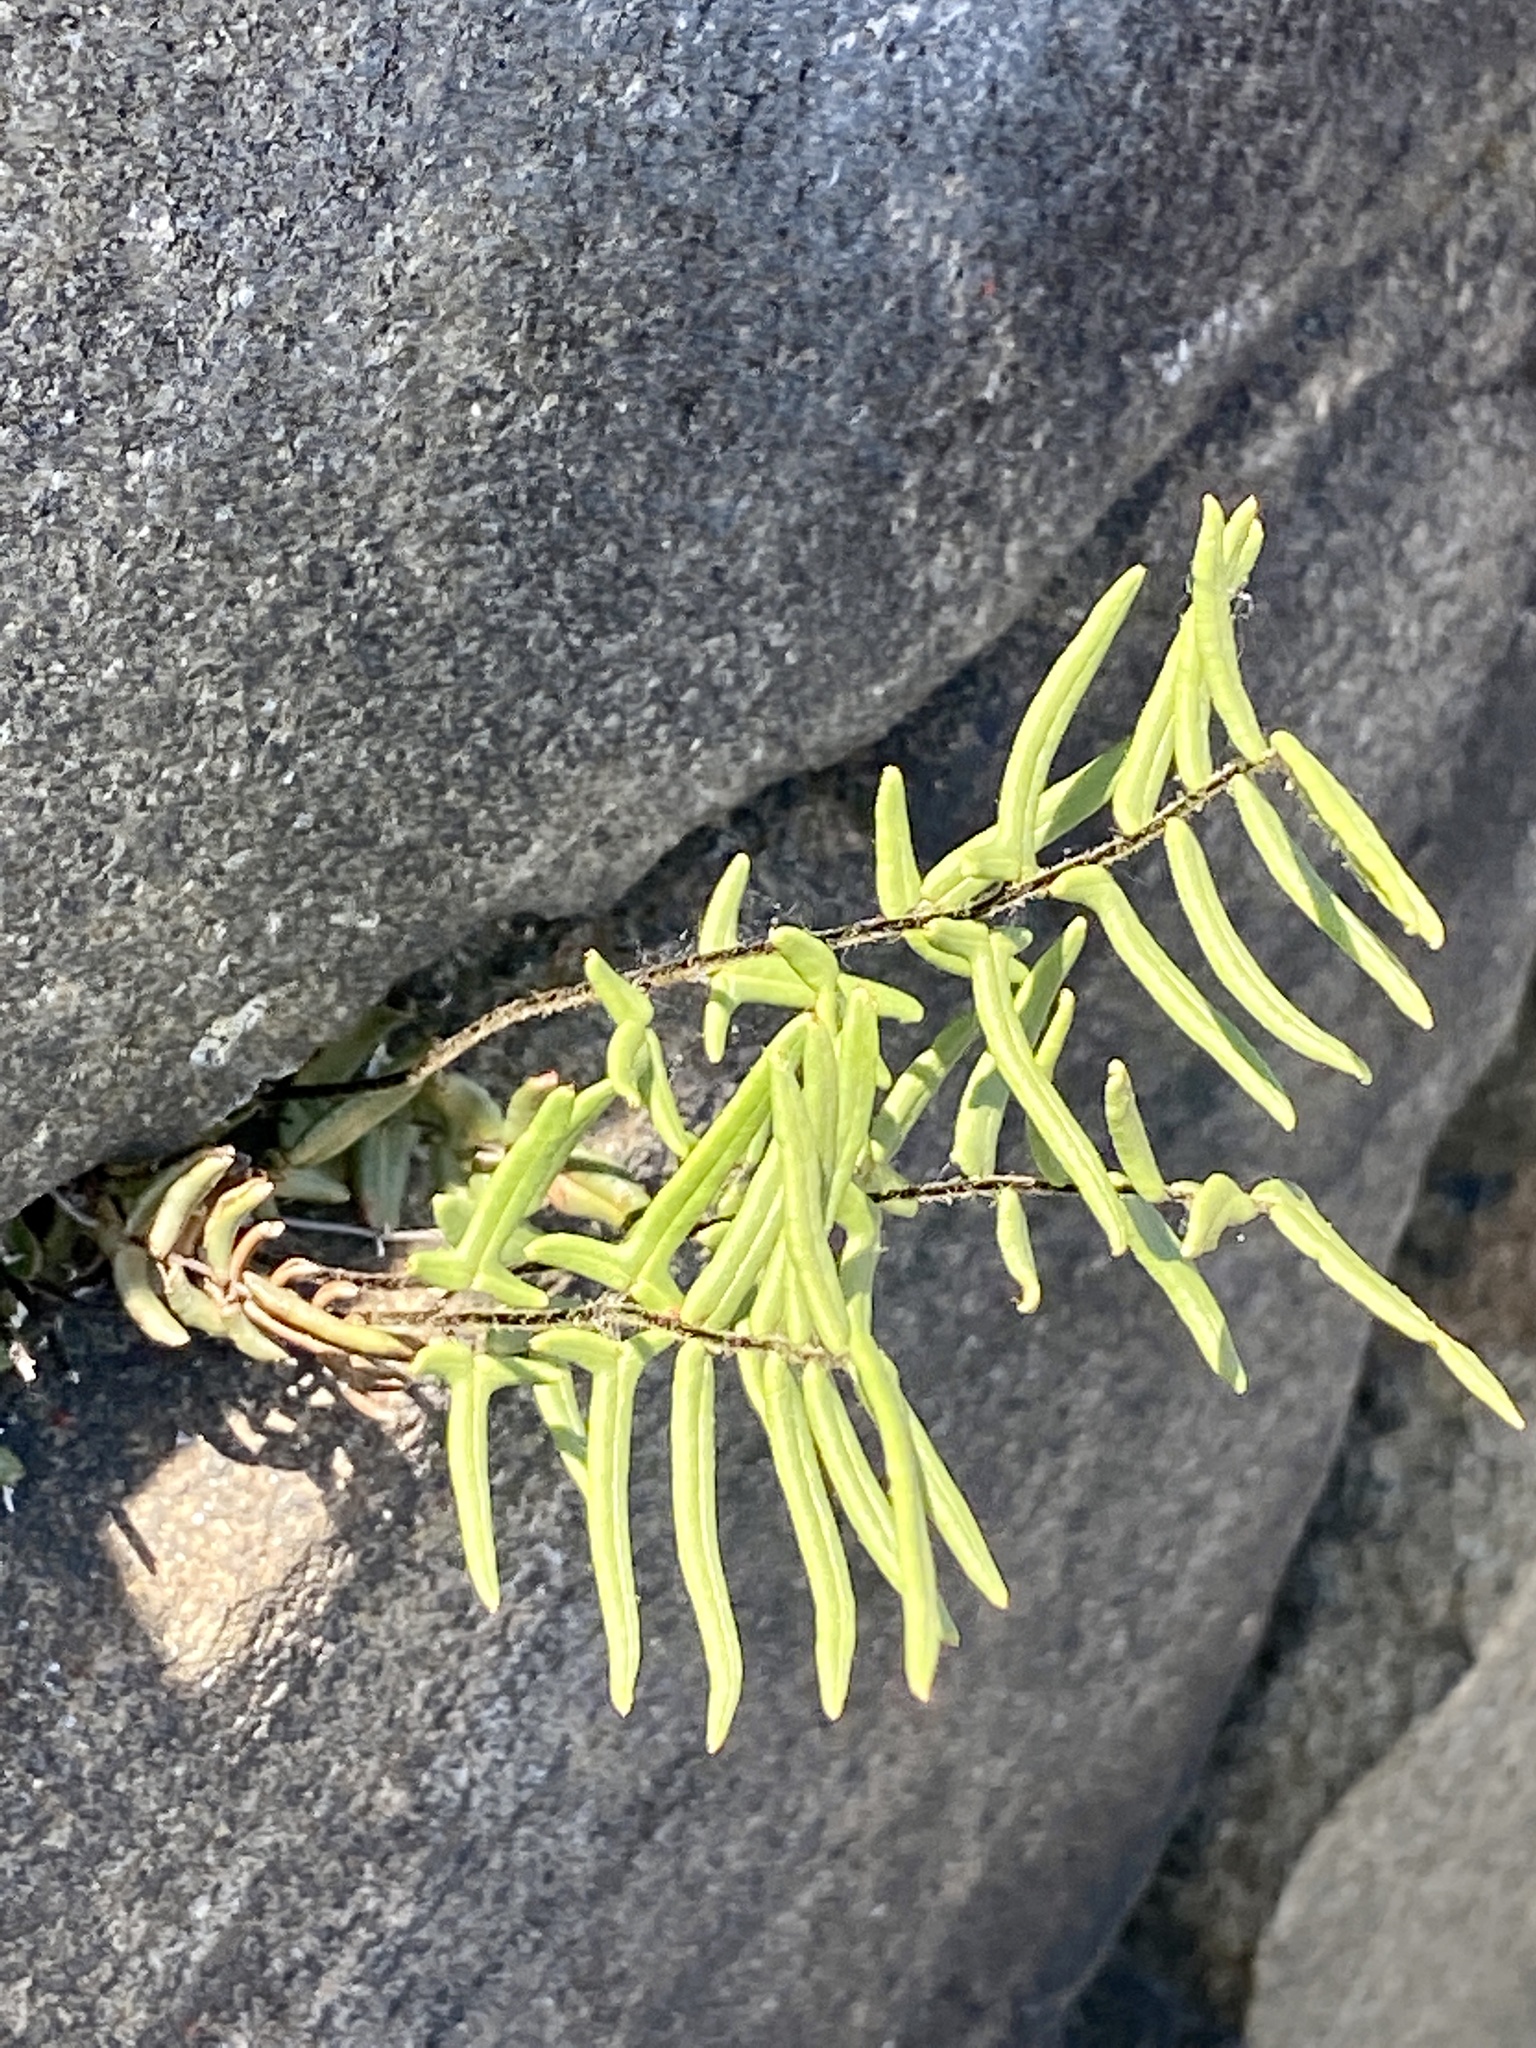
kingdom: Plantae
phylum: Tracheophyta
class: Polypodiopsida
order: Polypodiales
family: Pteridaceae
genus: Pellaea
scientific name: Pellaea atropurpurea
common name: Hairy cliffbrake
